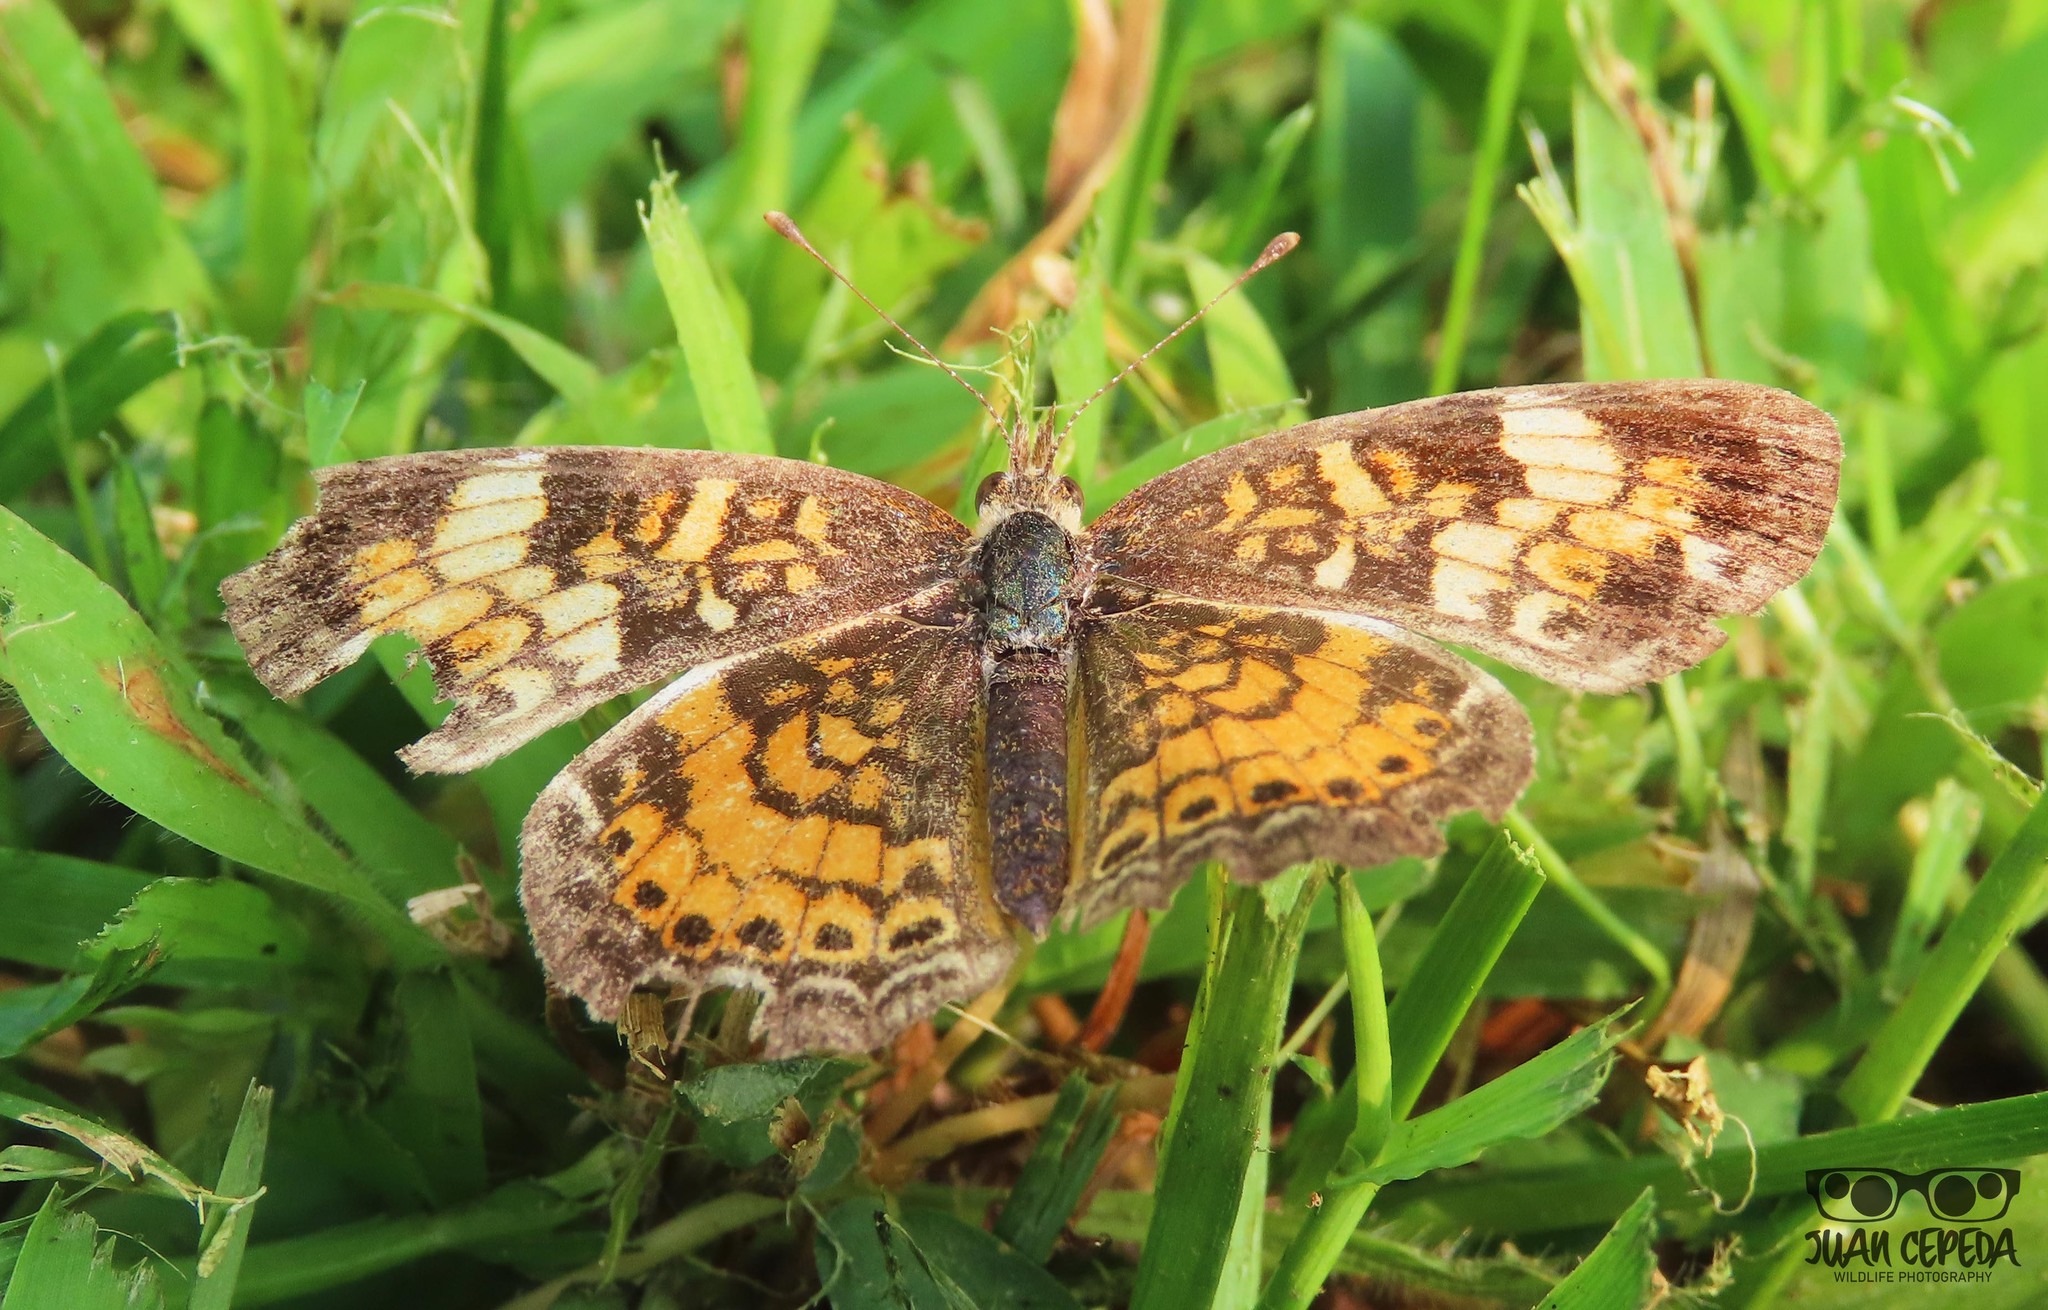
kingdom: Animalia
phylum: Arthropoda
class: Insecta
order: Lepidoptera
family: Nymphalidae
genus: Phyciodes
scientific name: Phyciodes tharos
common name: Pearl crescent
